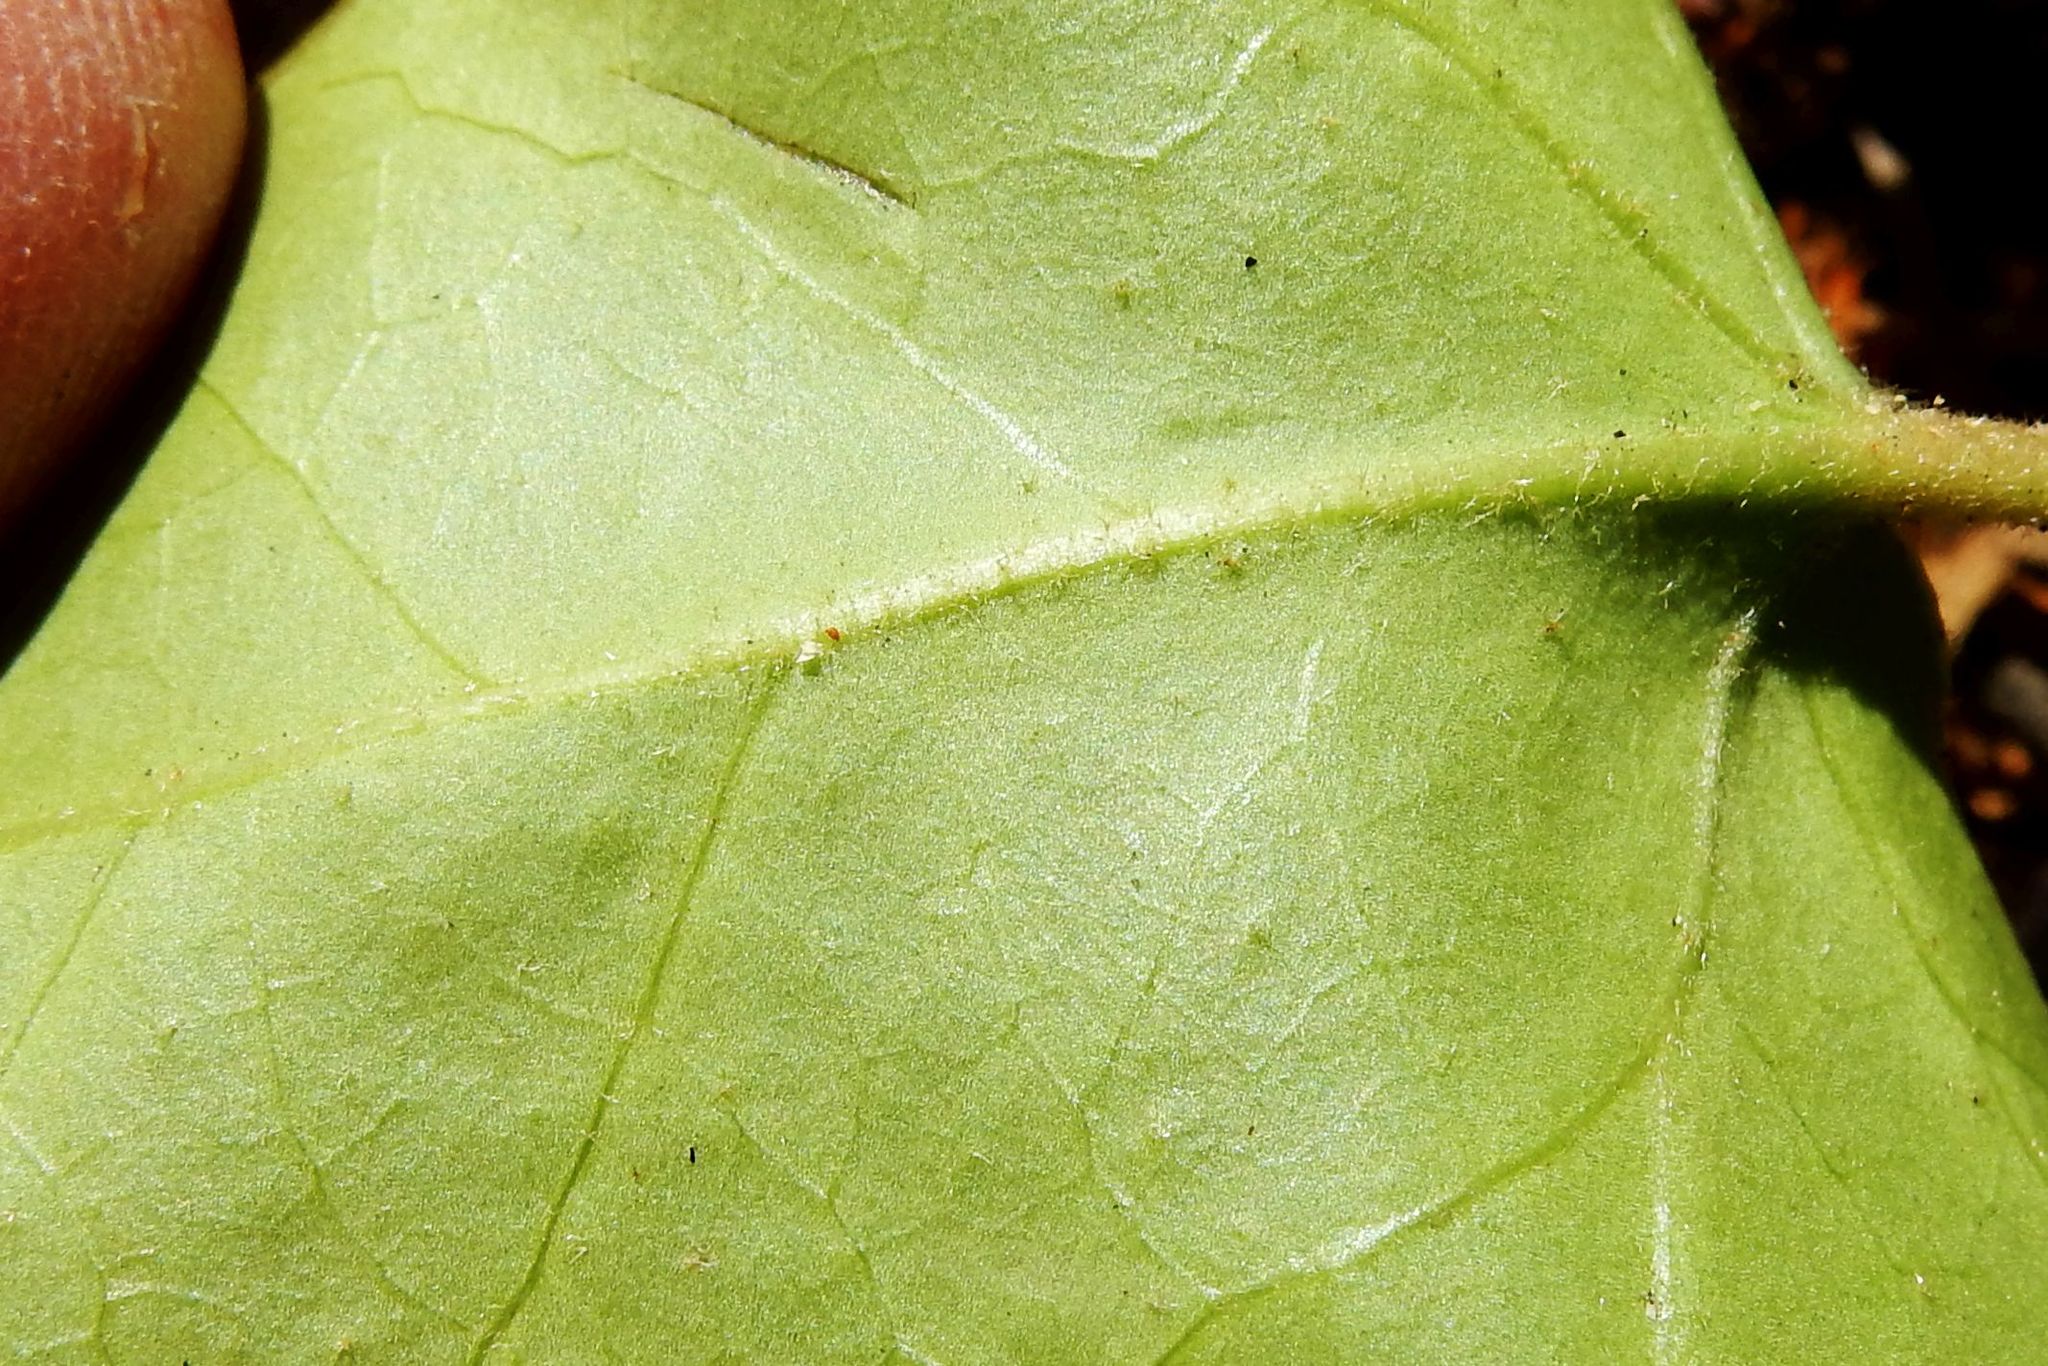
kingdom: Plantae
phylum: Tracheophyta
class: Magnoliopsida
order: Apiales
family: Araliaceae
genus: Hedera
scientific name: Hedera hibernica
